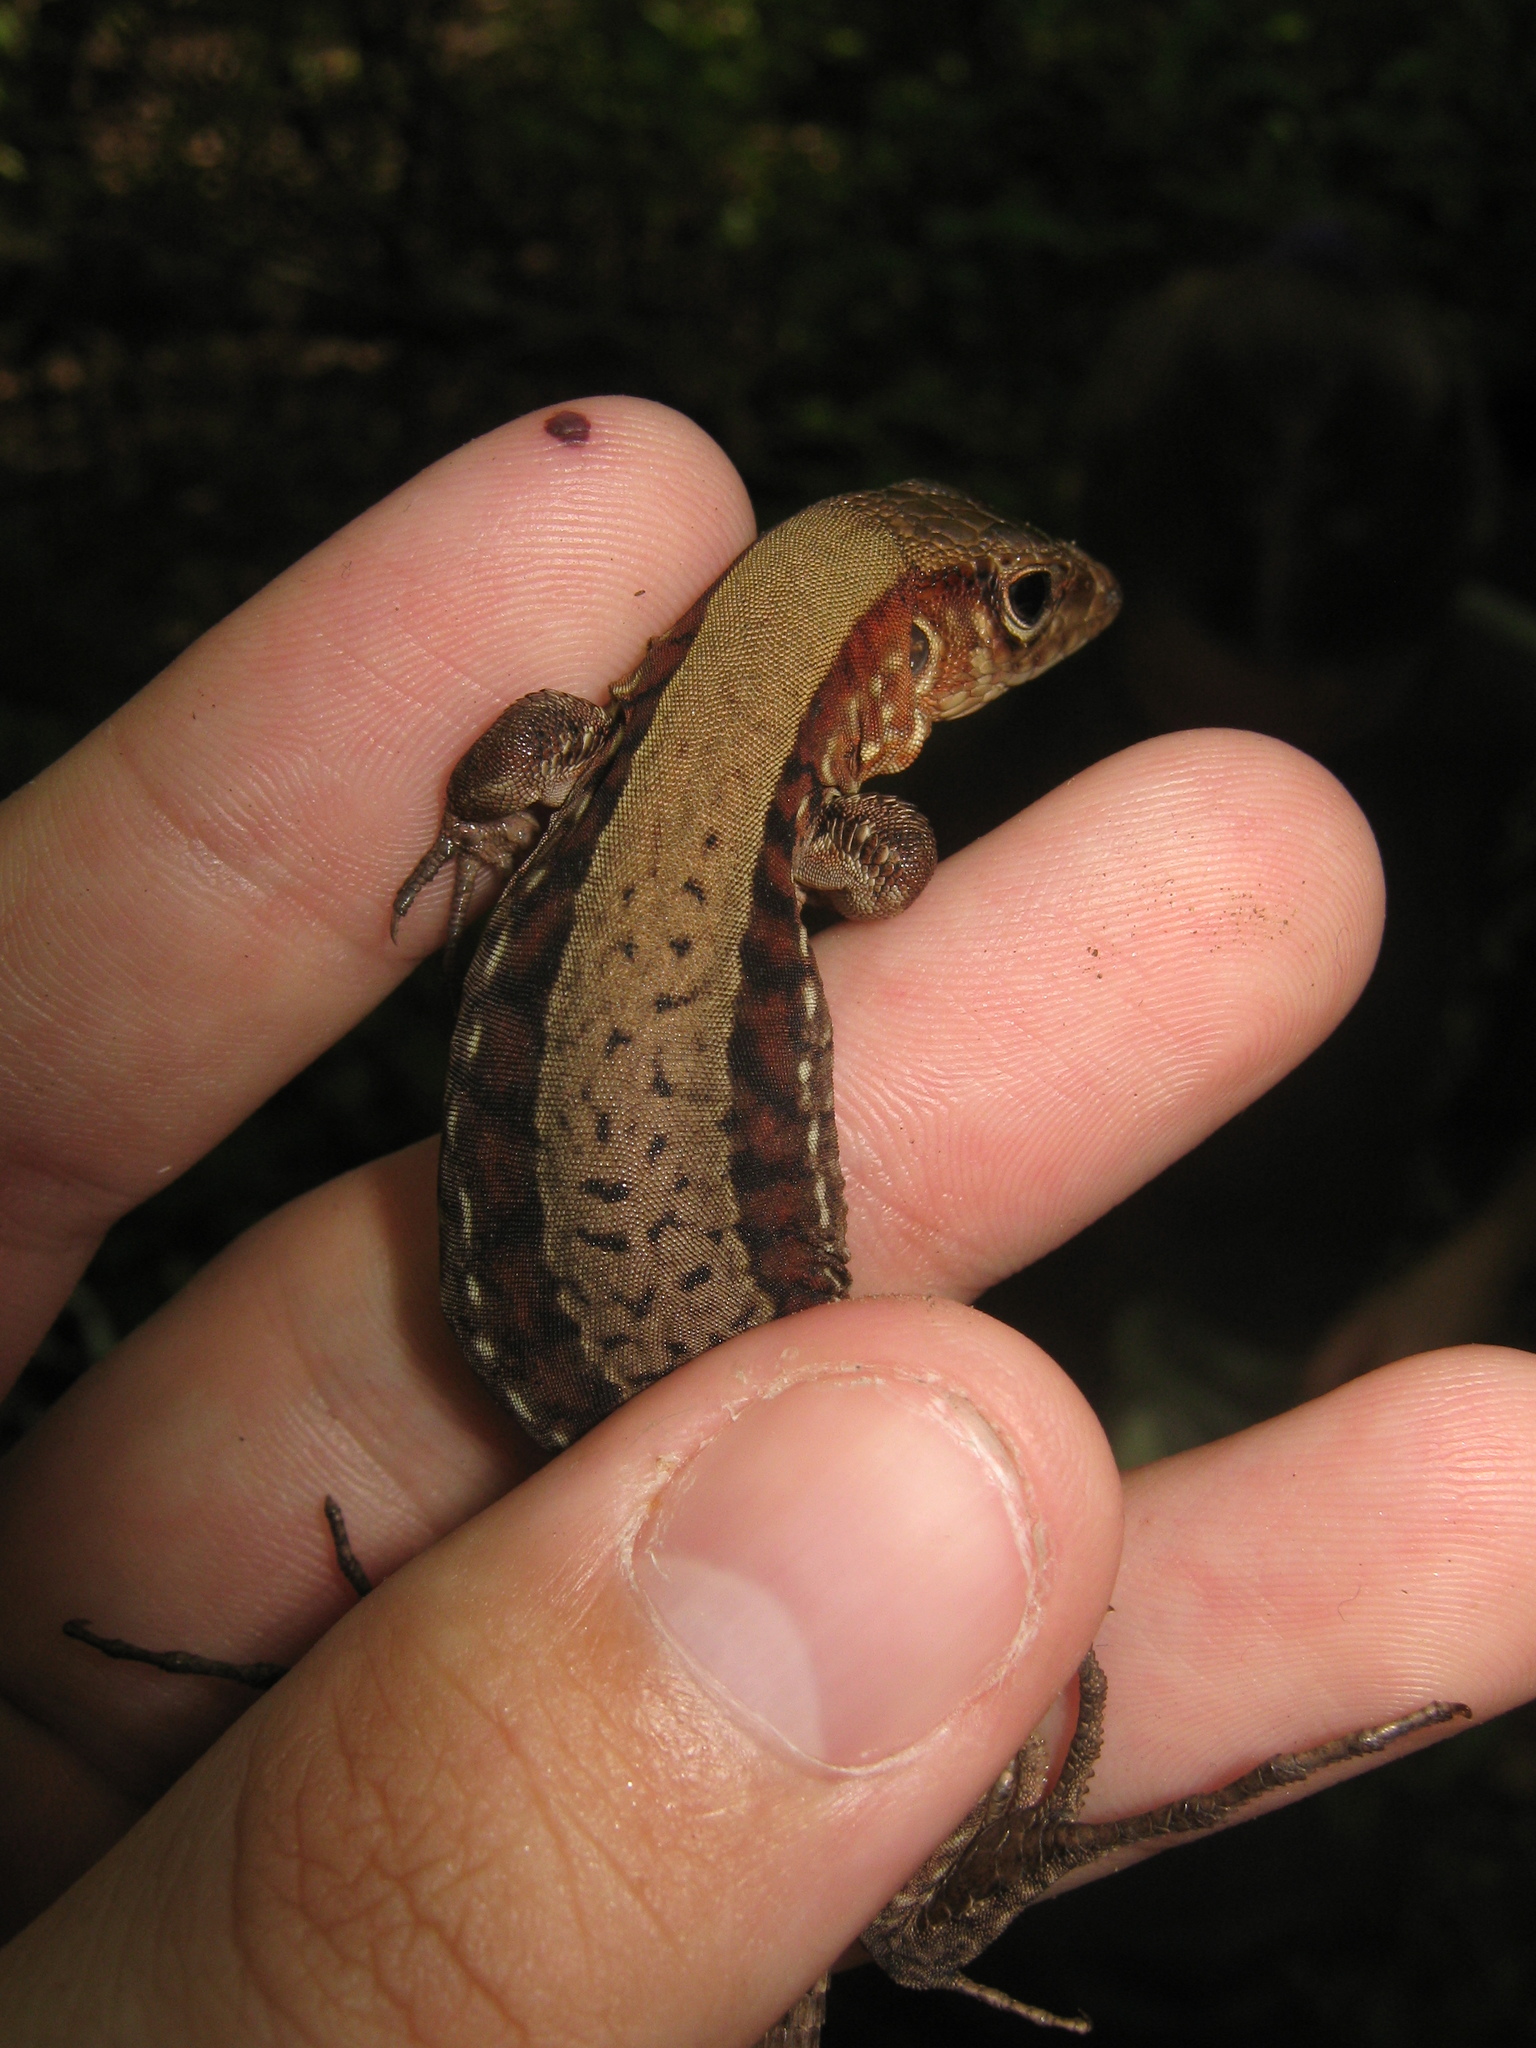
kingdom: Animalia
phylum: Chordata
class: Squamata
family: Teiidae
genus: Holcosus
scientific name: Holcosus sinister
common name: Rainbow ameiva
